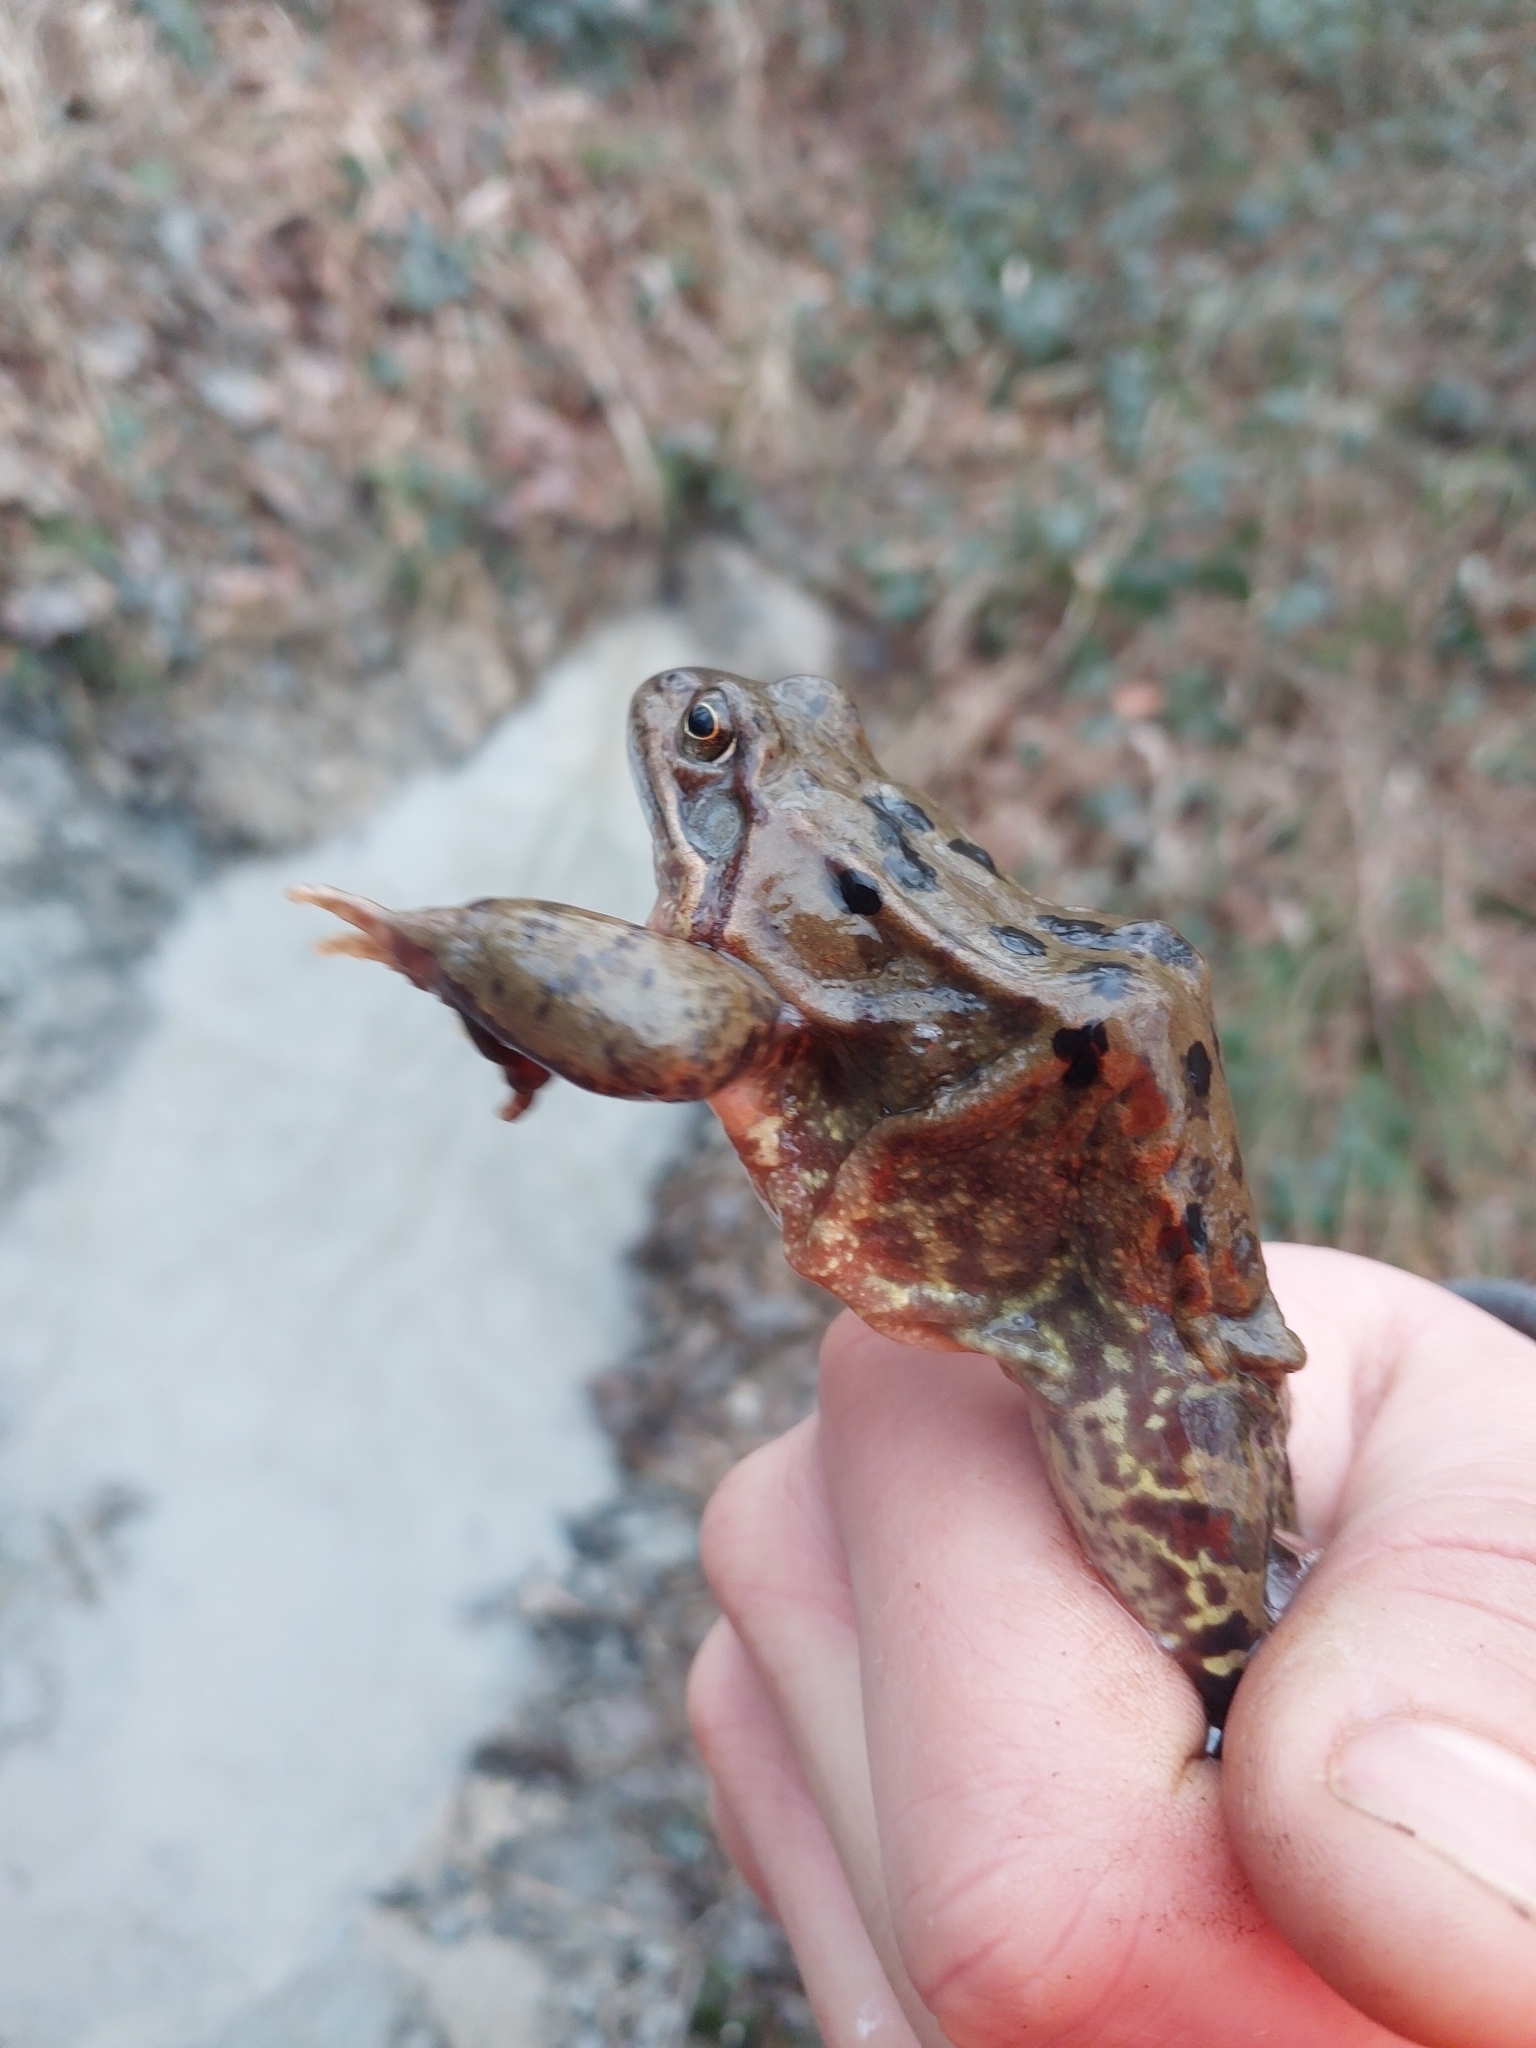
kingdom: Animalia
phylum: Chordata
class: Amphibia
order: Anura
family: Ranidae
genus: Rana
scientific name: Rana temporaria
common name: Common frog
